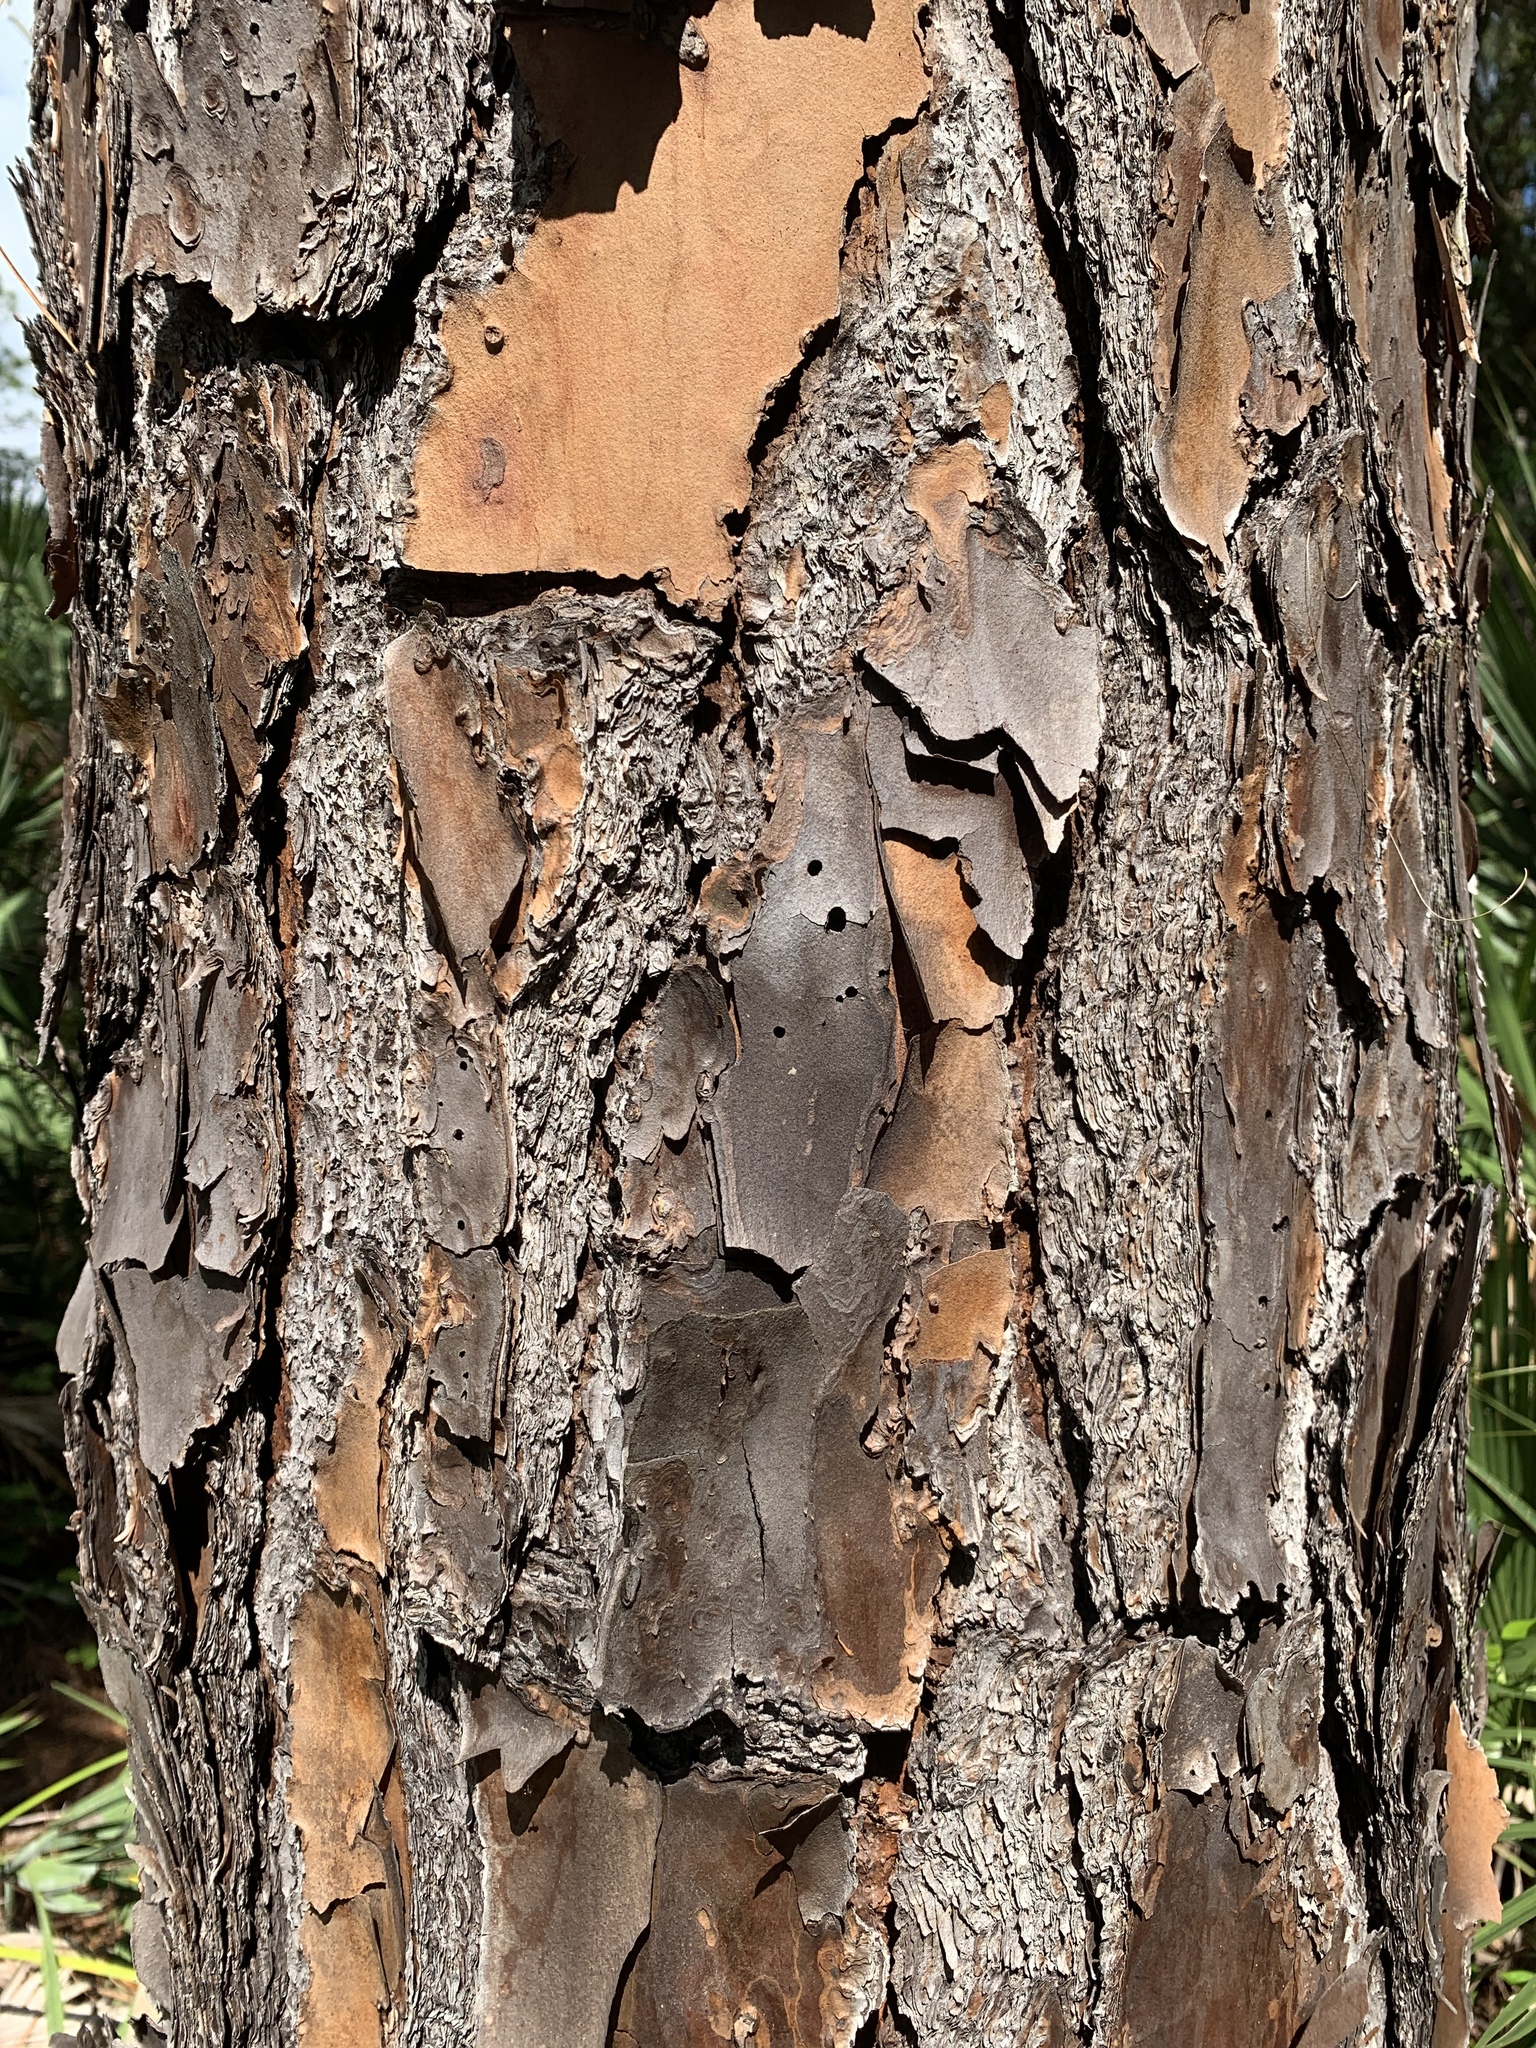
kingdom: Plantae
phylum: Tracheophyta
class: Pinopsida
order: Pinales
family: Pinaceae
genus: Pinus
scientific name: Pinus elliottii
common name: Slash pine
